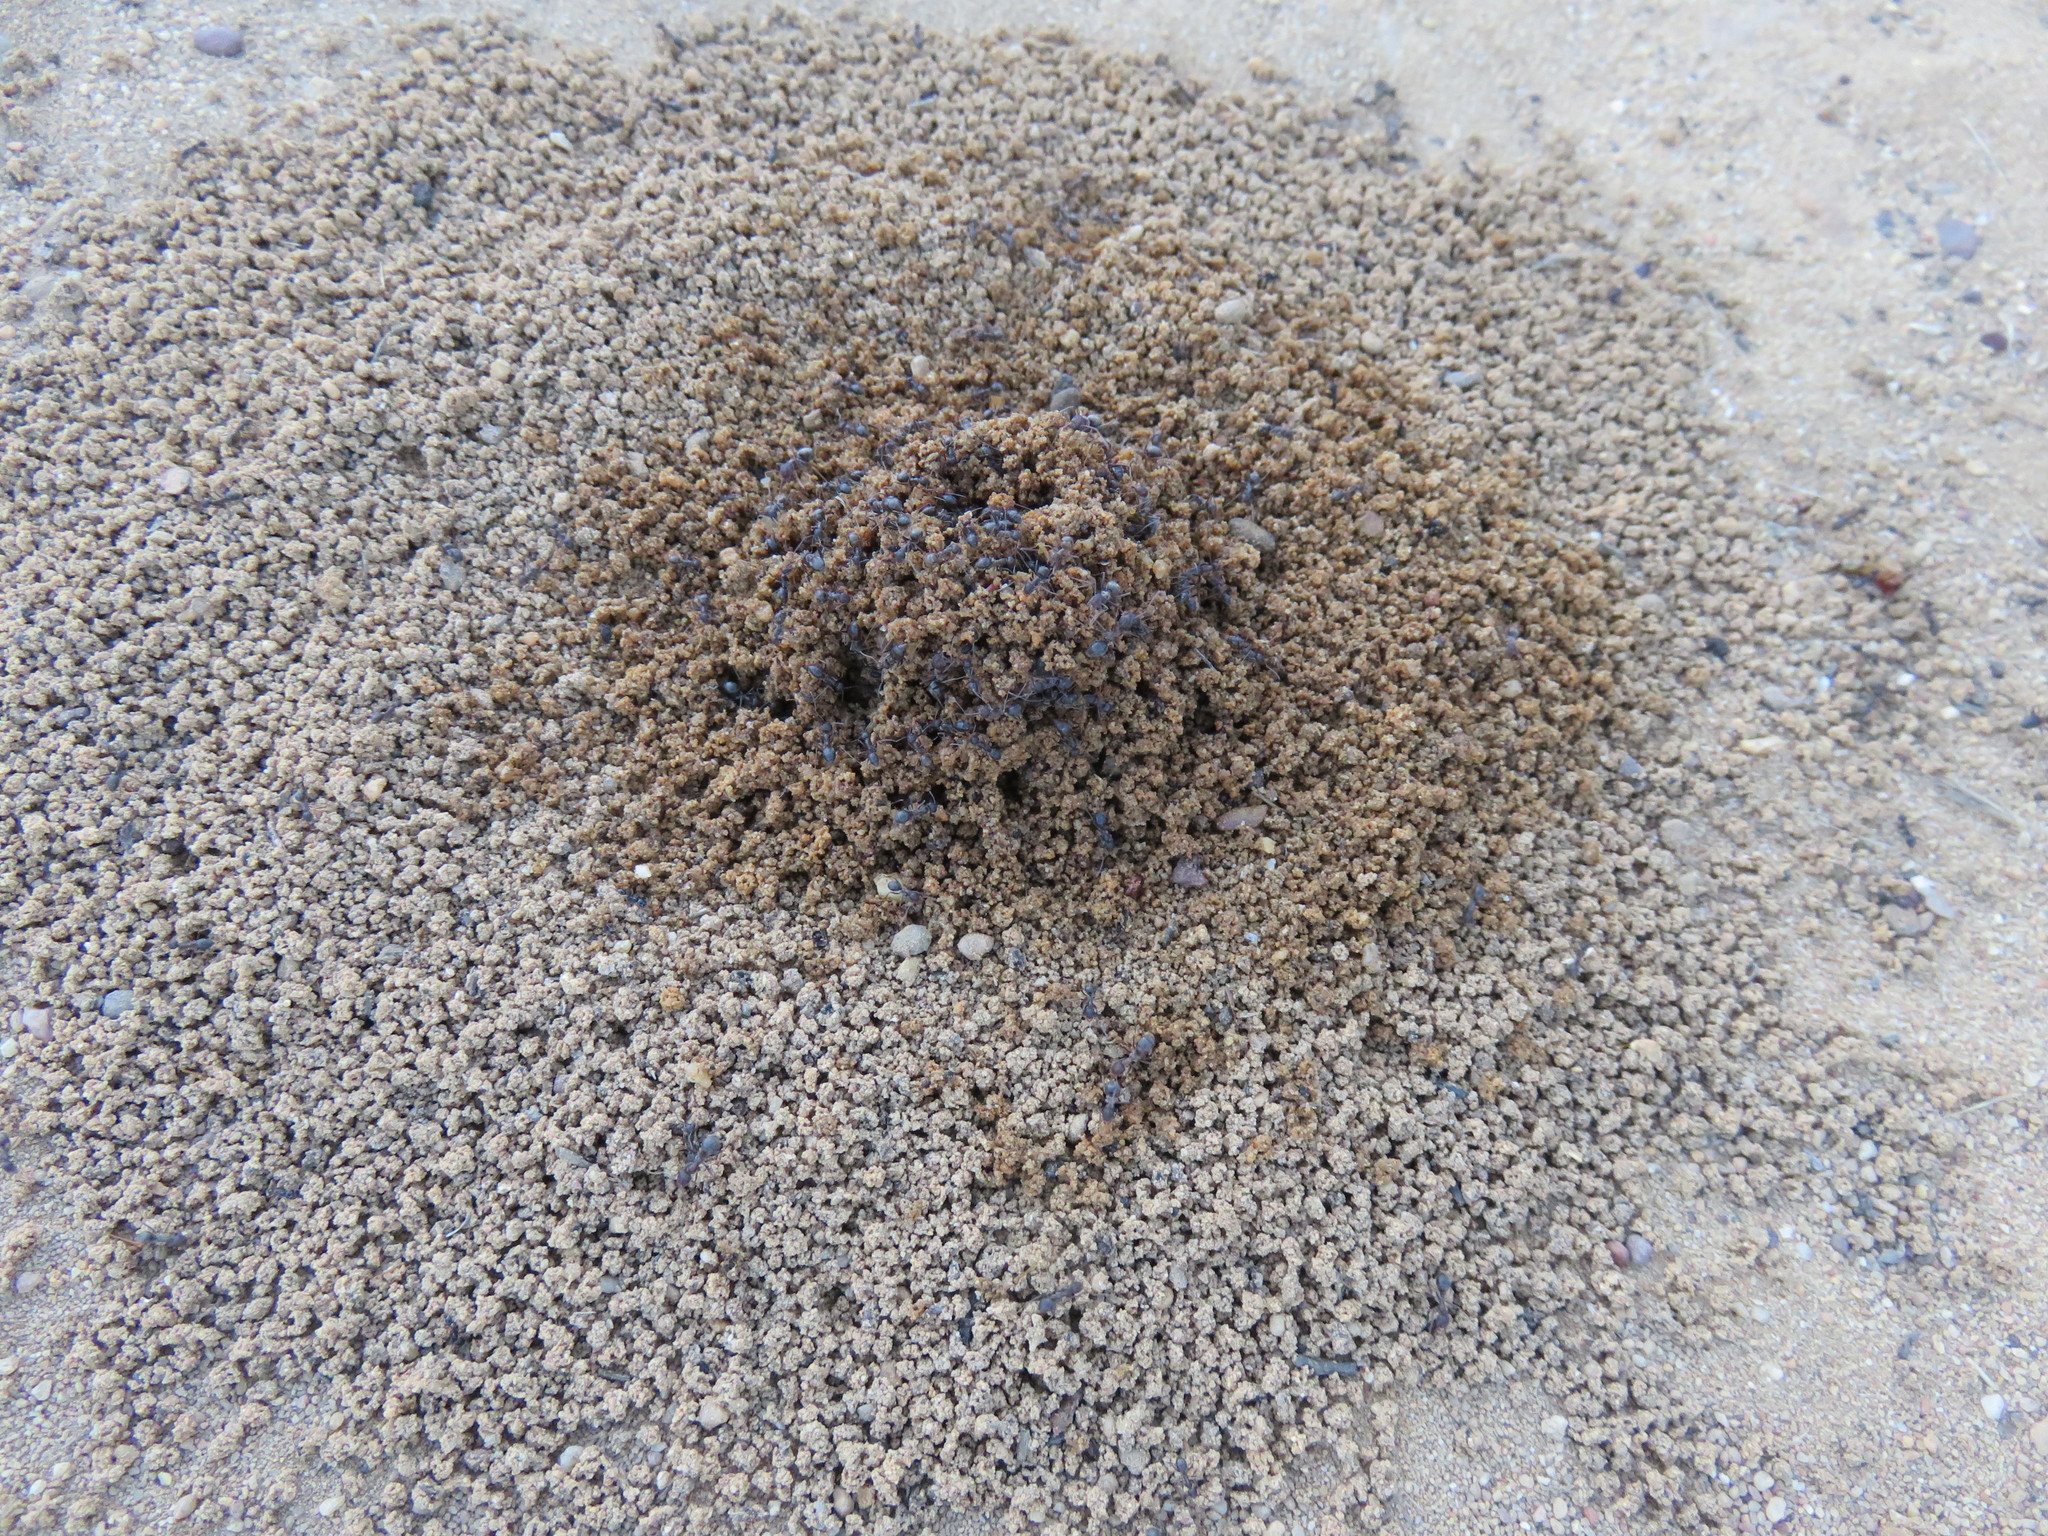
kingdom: Animalia
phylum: Arthropoda
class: Insecta
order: Hymenoptera
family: Formicidae
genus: Anoplolepis
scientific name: Anoplolepis steingroeveri
